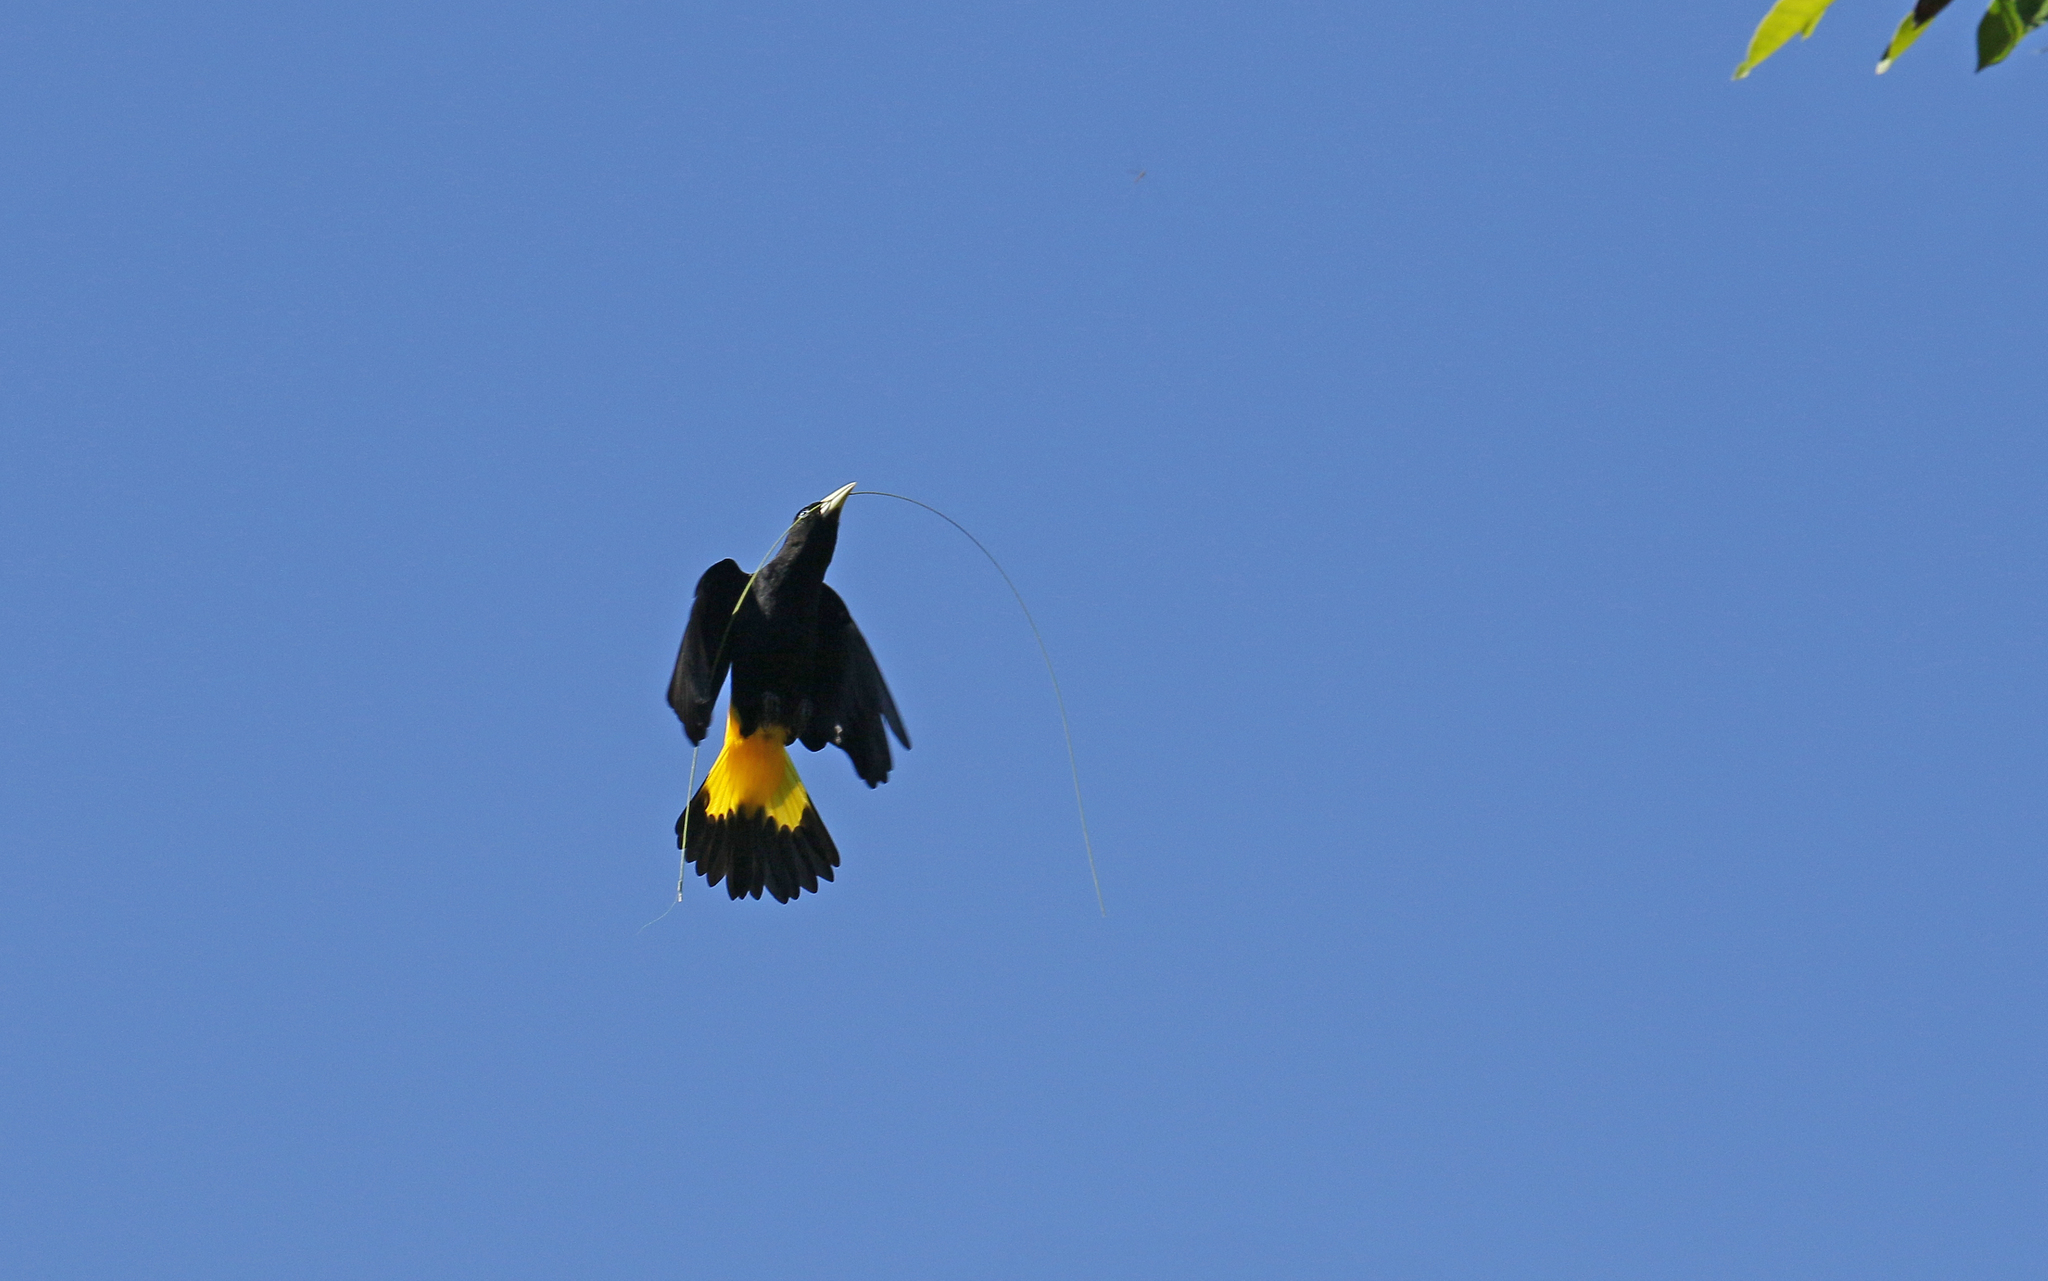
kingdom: Animalia
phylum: Chordata
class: Aves
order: Passeriformes
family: Icteridae
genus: Cacicus
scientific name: Cacicus cela
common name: Yellow-rumped cacique
